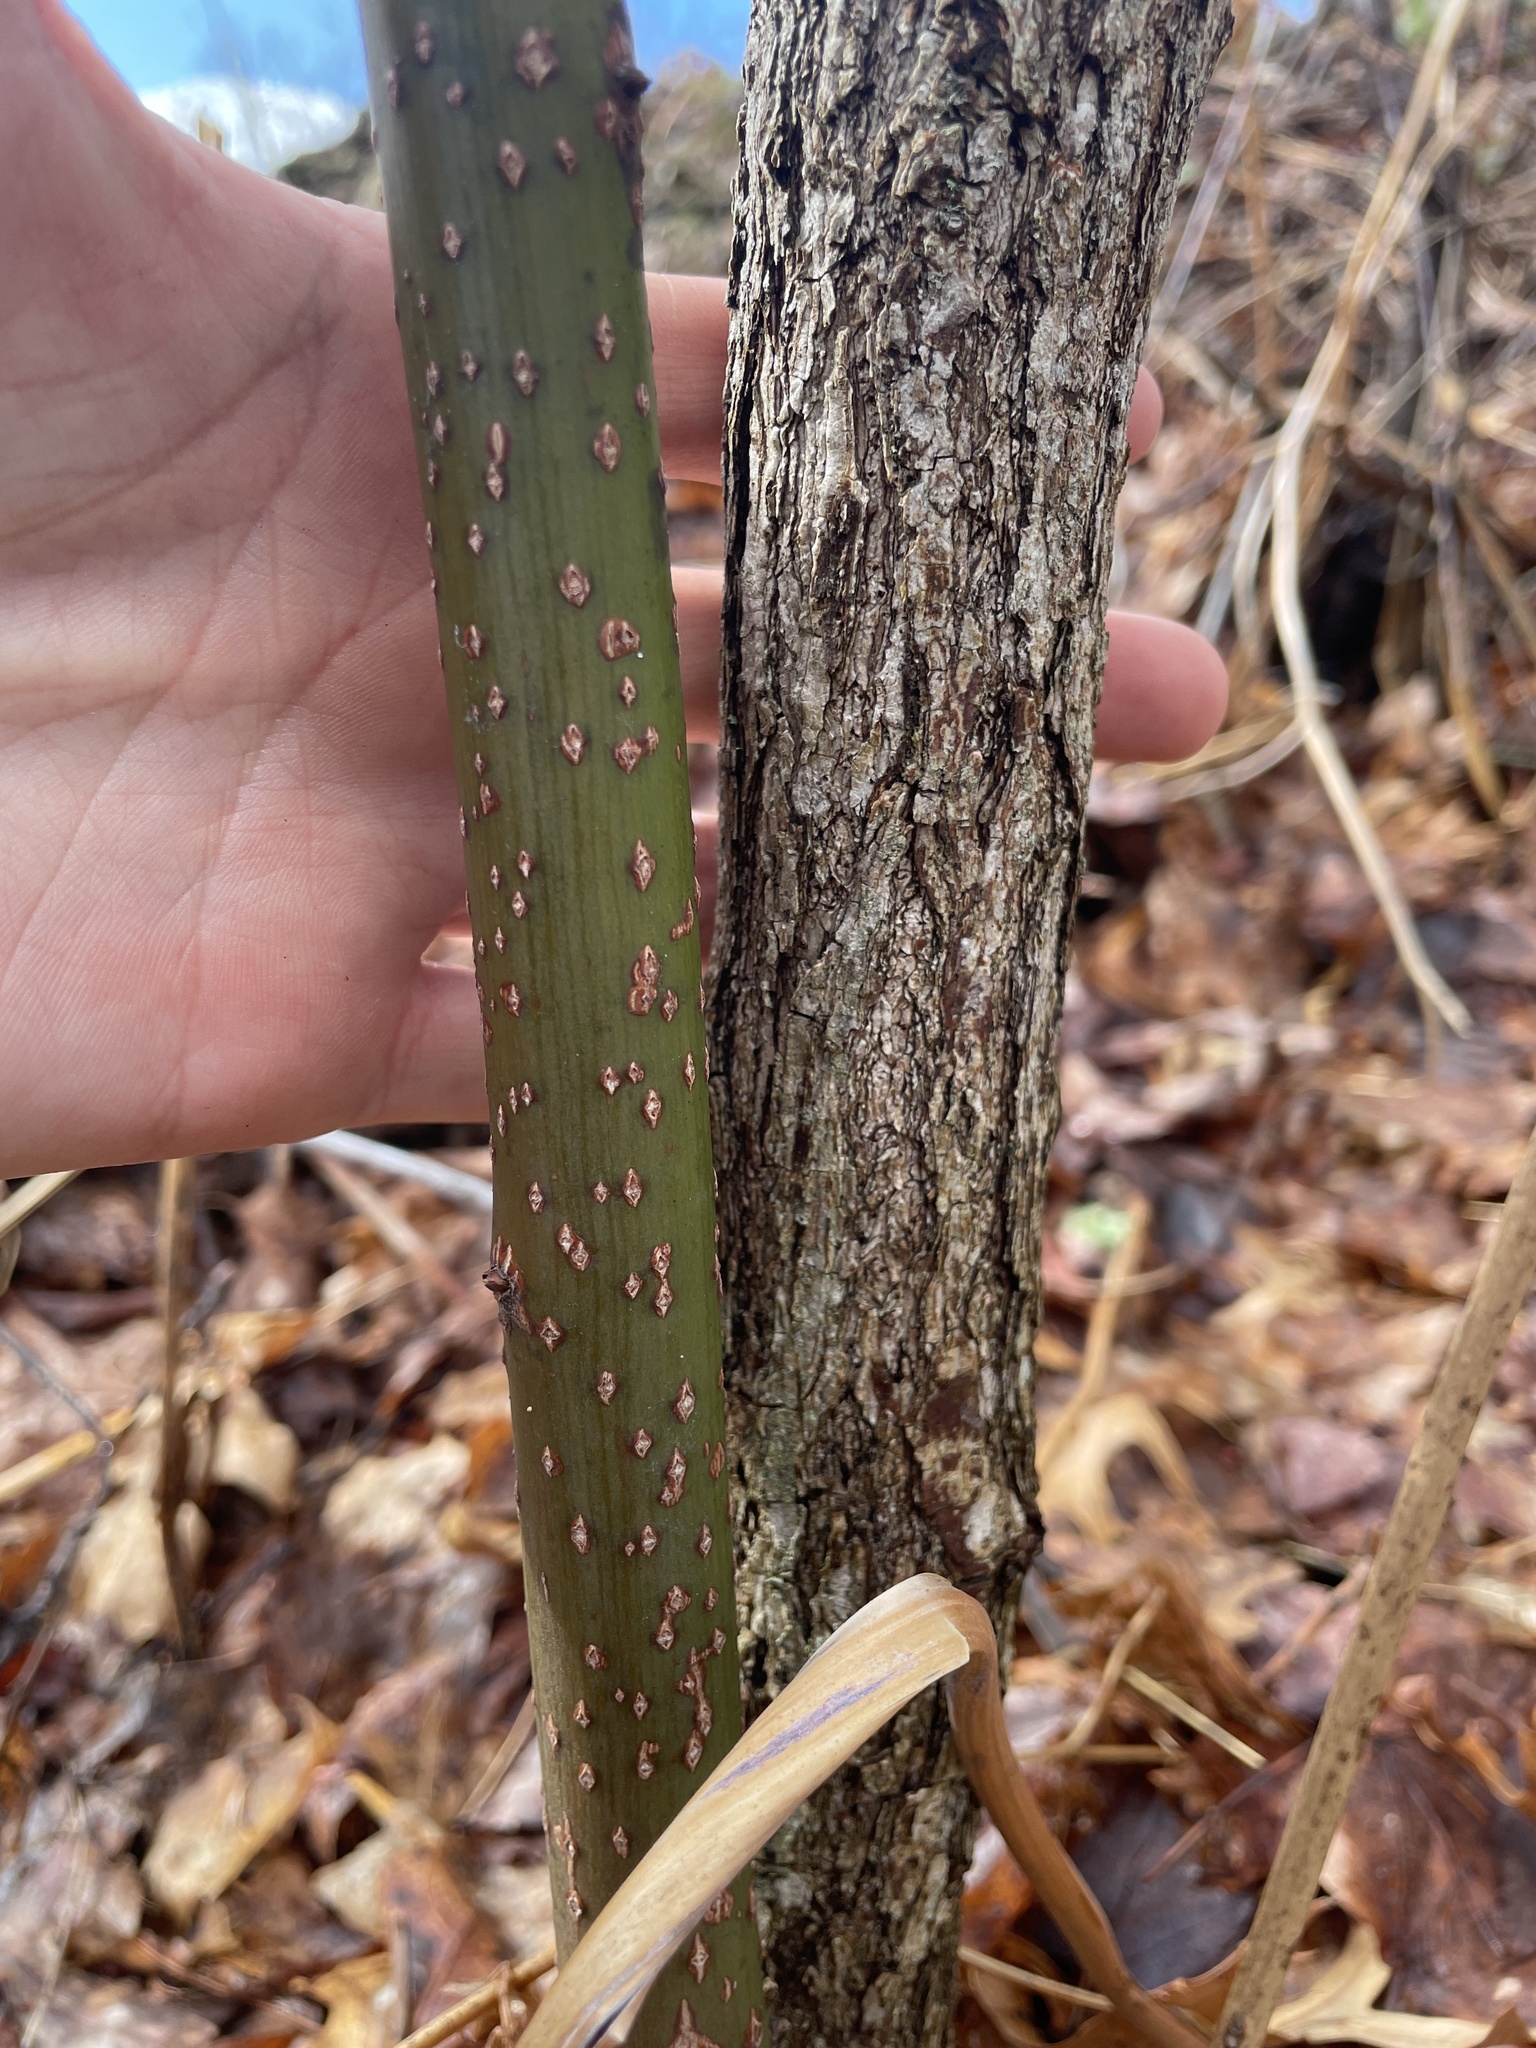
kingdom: Plantae
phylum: Tracheophyta
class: Magnoliopsida
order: Laurales
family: Lauraceae
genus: Sassafras
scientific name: Sassafras albidum
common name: Sassafras
